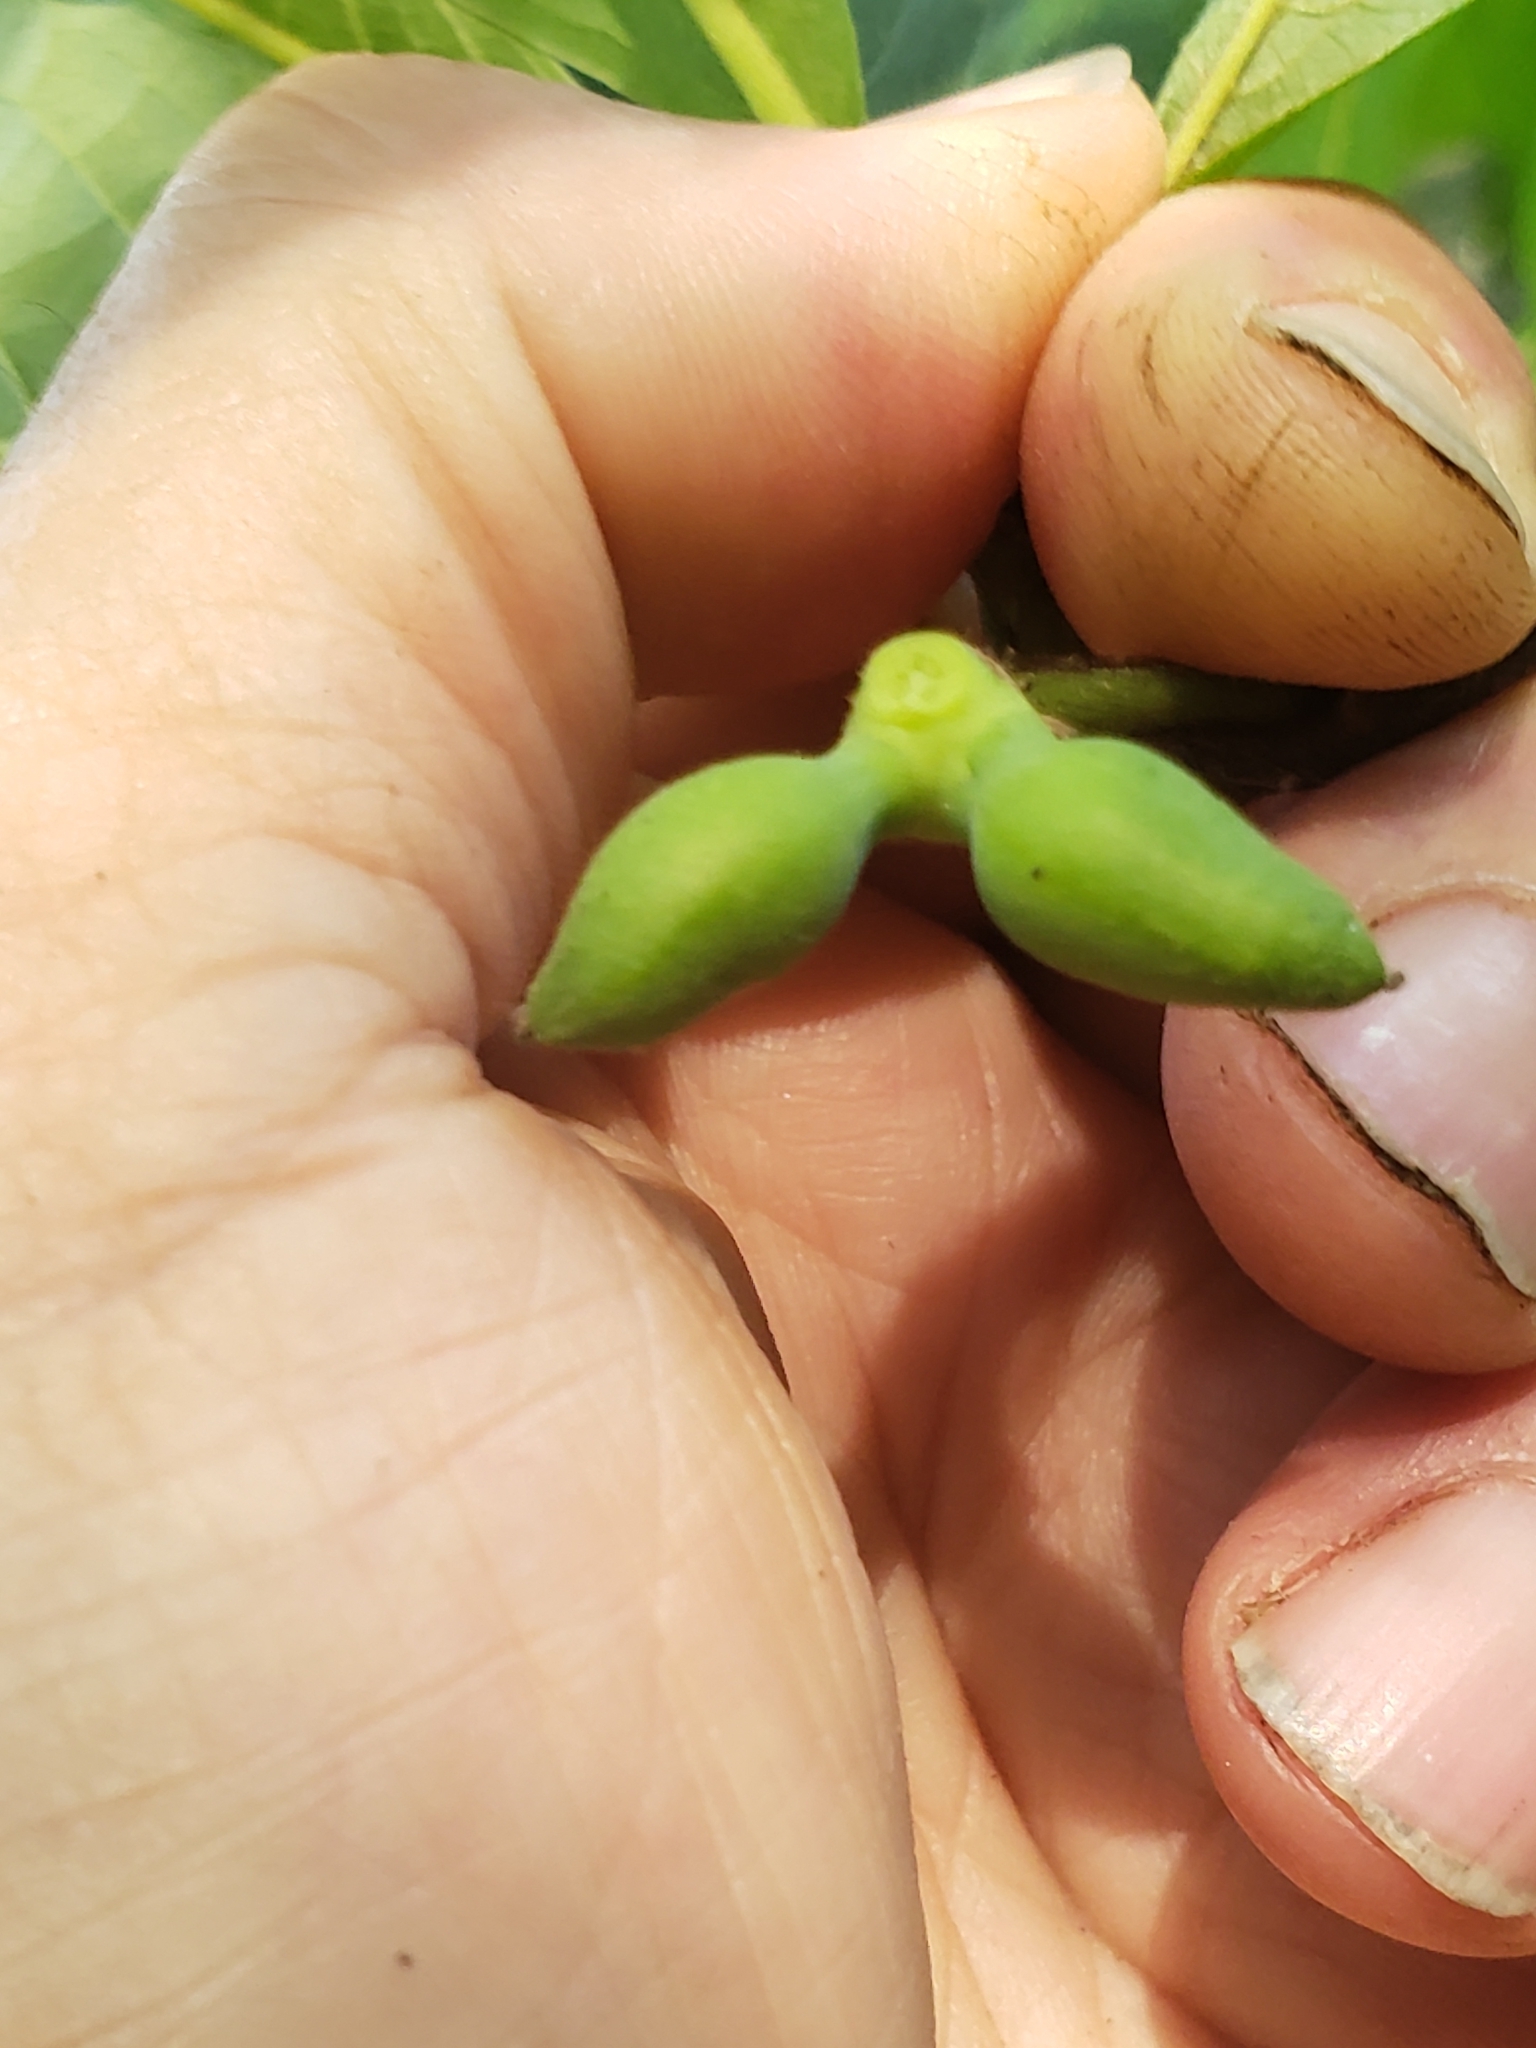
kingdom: Plantae
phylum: Tracheophyta
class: Magnoliopsida
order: Magnoliales
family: Annonaceae
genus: Asimina
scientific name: Asimina triloba
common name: Dog-banana
